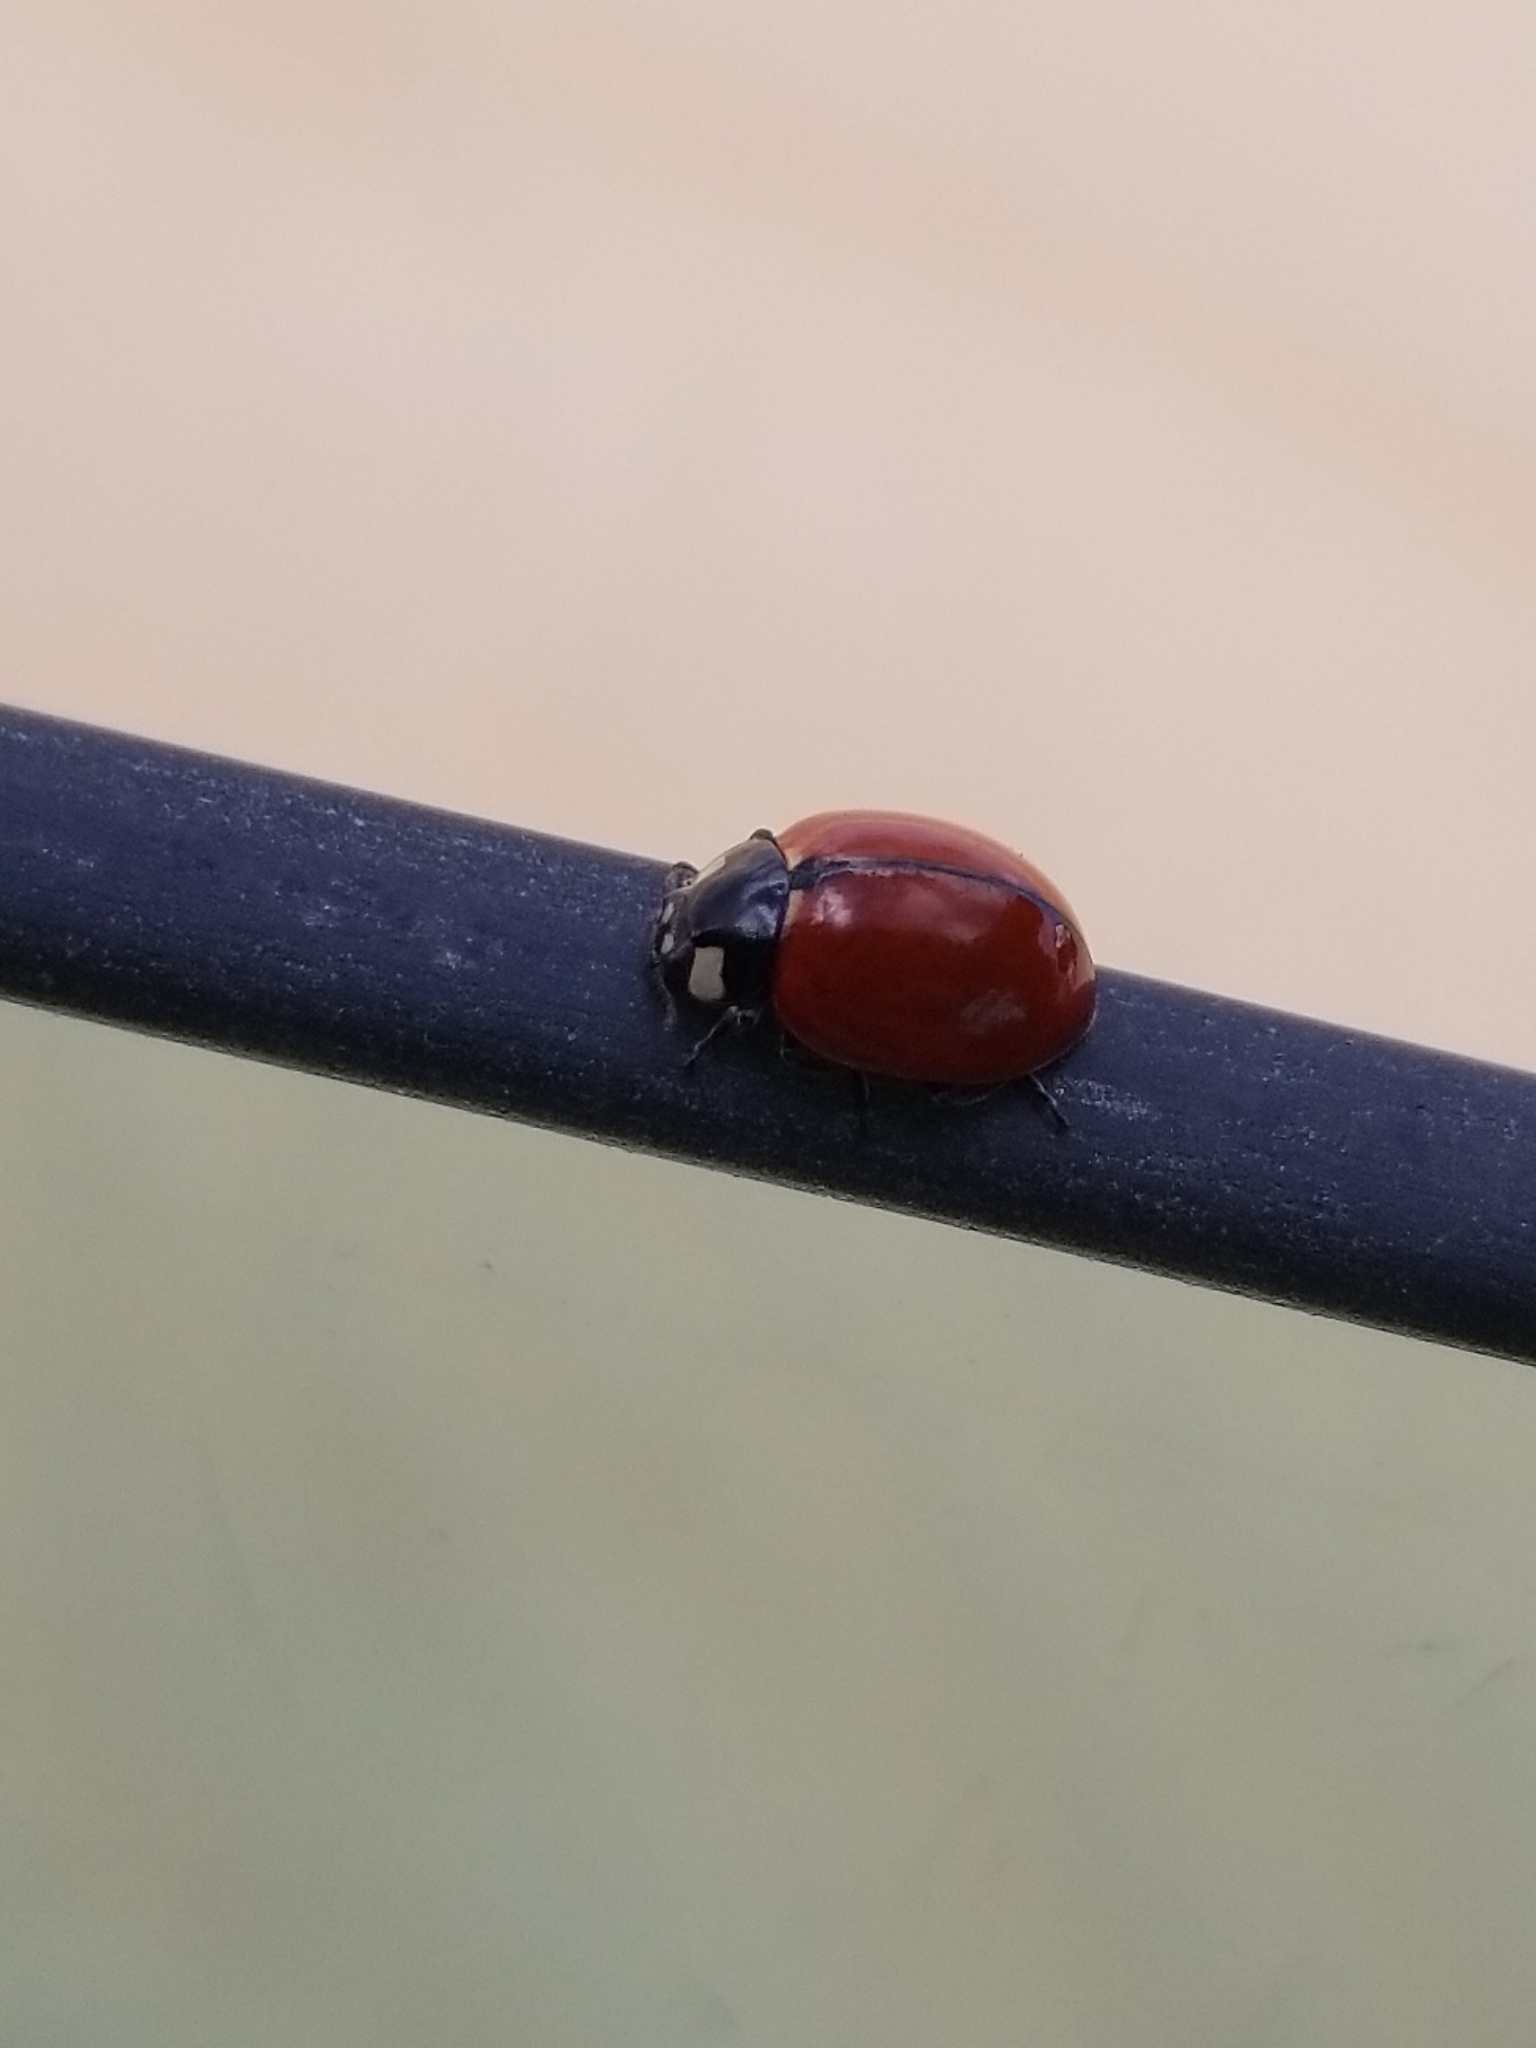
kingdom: Animalia
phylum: Arthropoda
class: Insecta
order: Coleoptera
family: Coccinellidae
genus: Coccinella
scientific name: Coccinella californica
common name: Lady beetle
